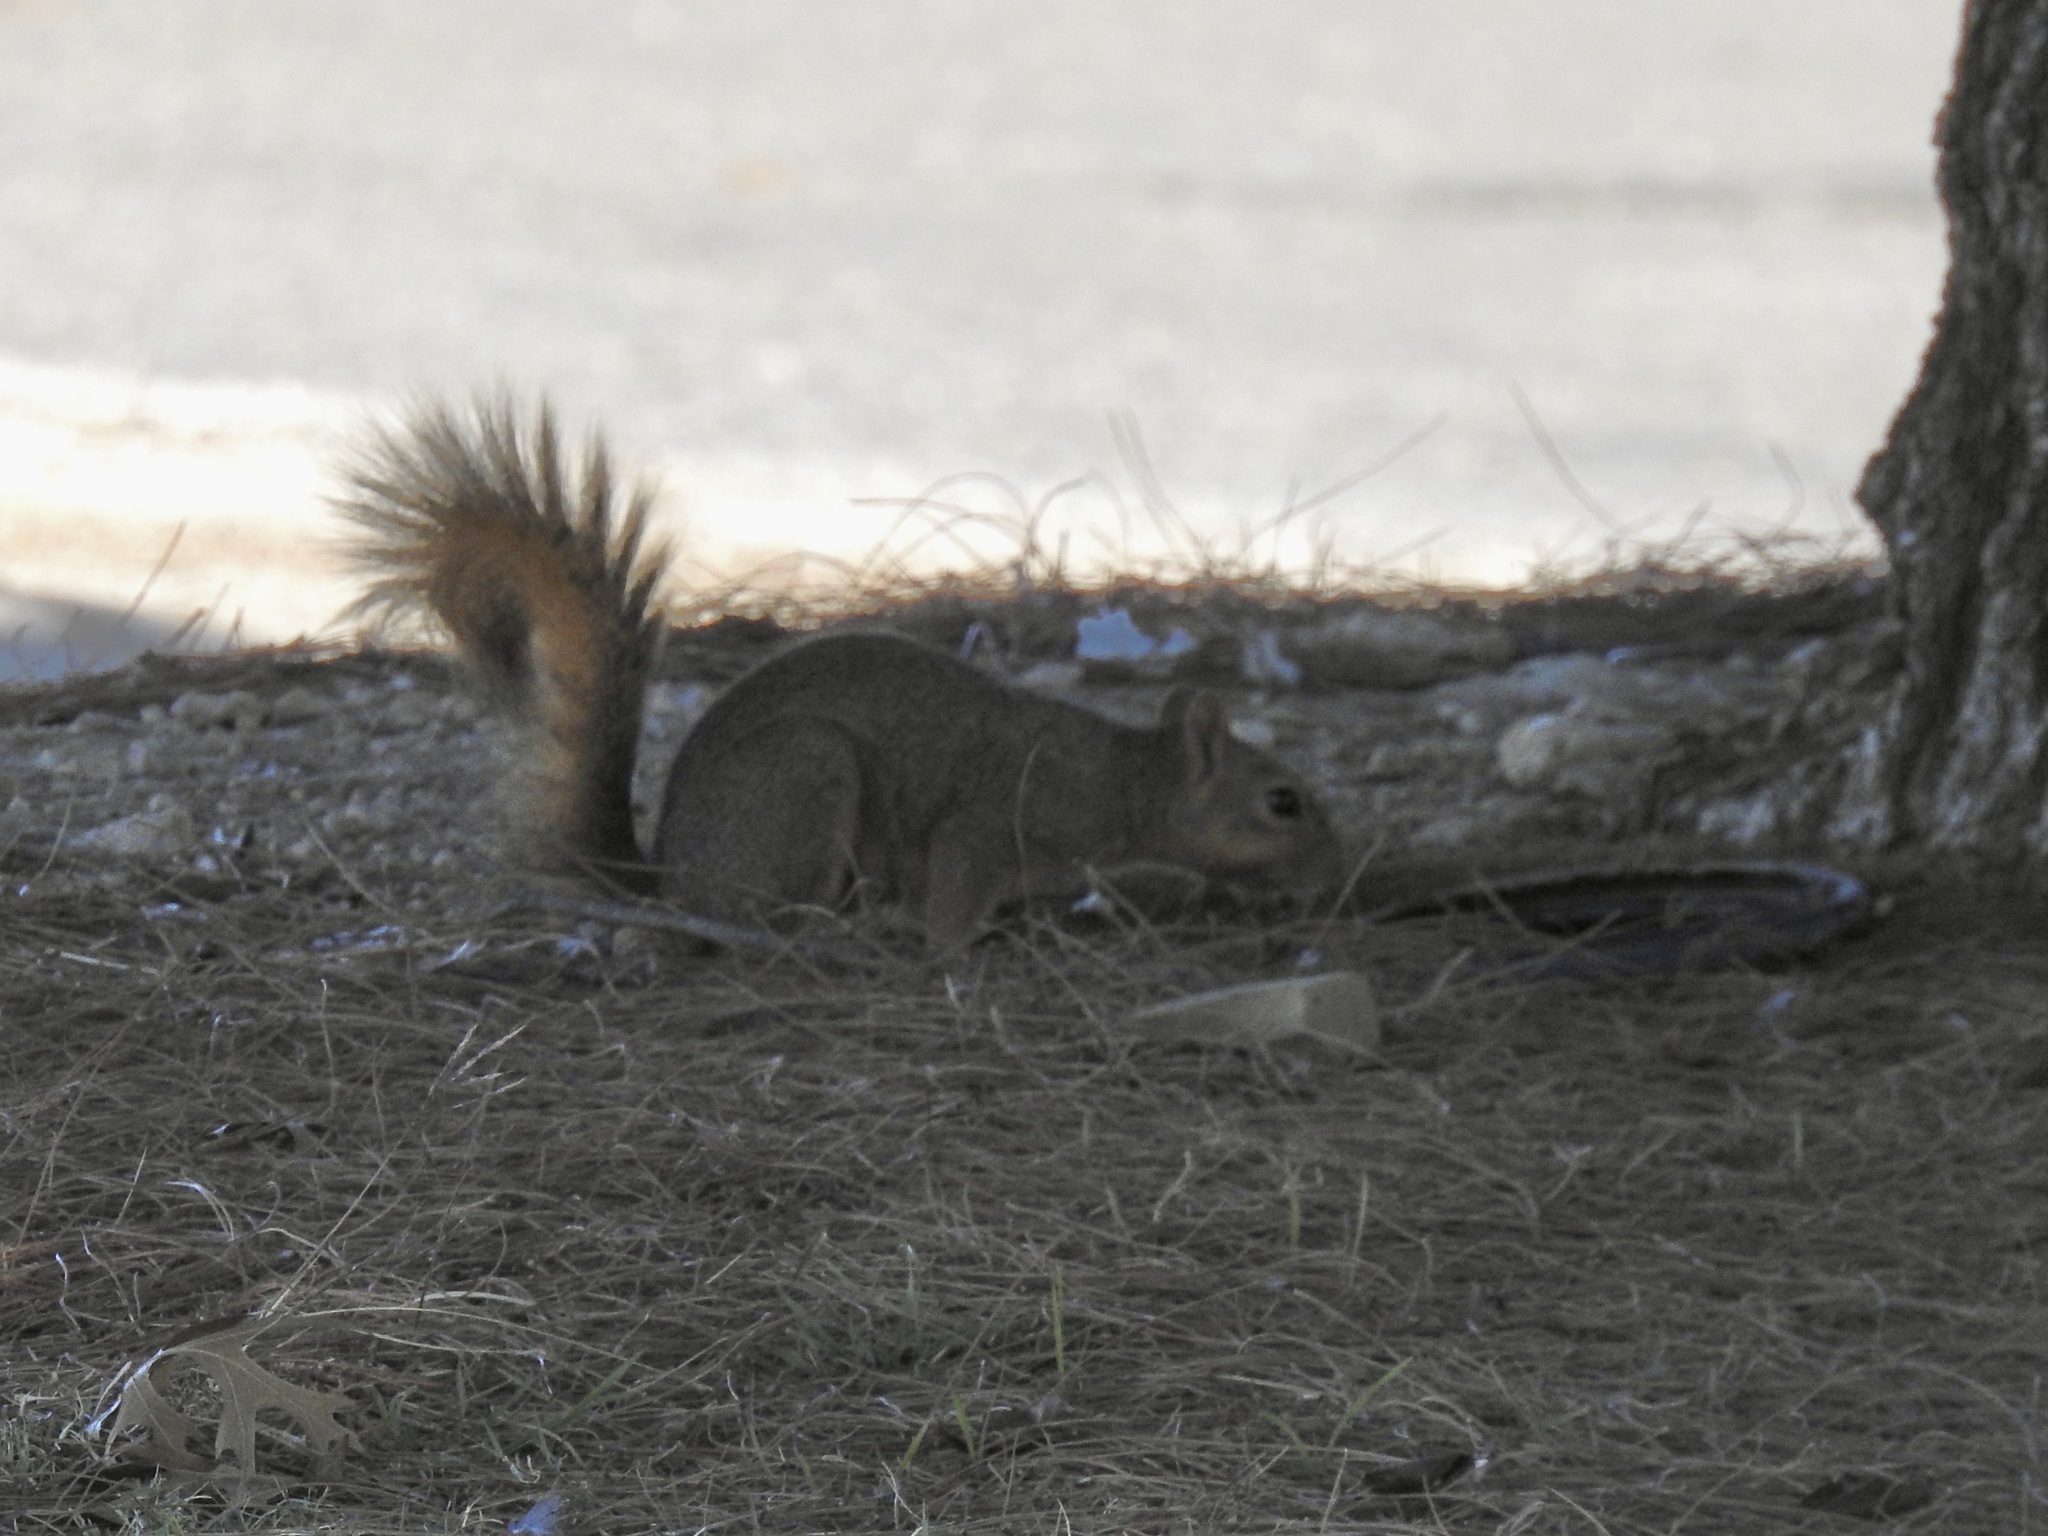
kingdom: Animalia
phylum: Chordata
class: Mammalia
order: Rodentia
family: Sciuridae
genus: Sciurus
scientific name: Sciurus niger
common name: Fox squirrel
